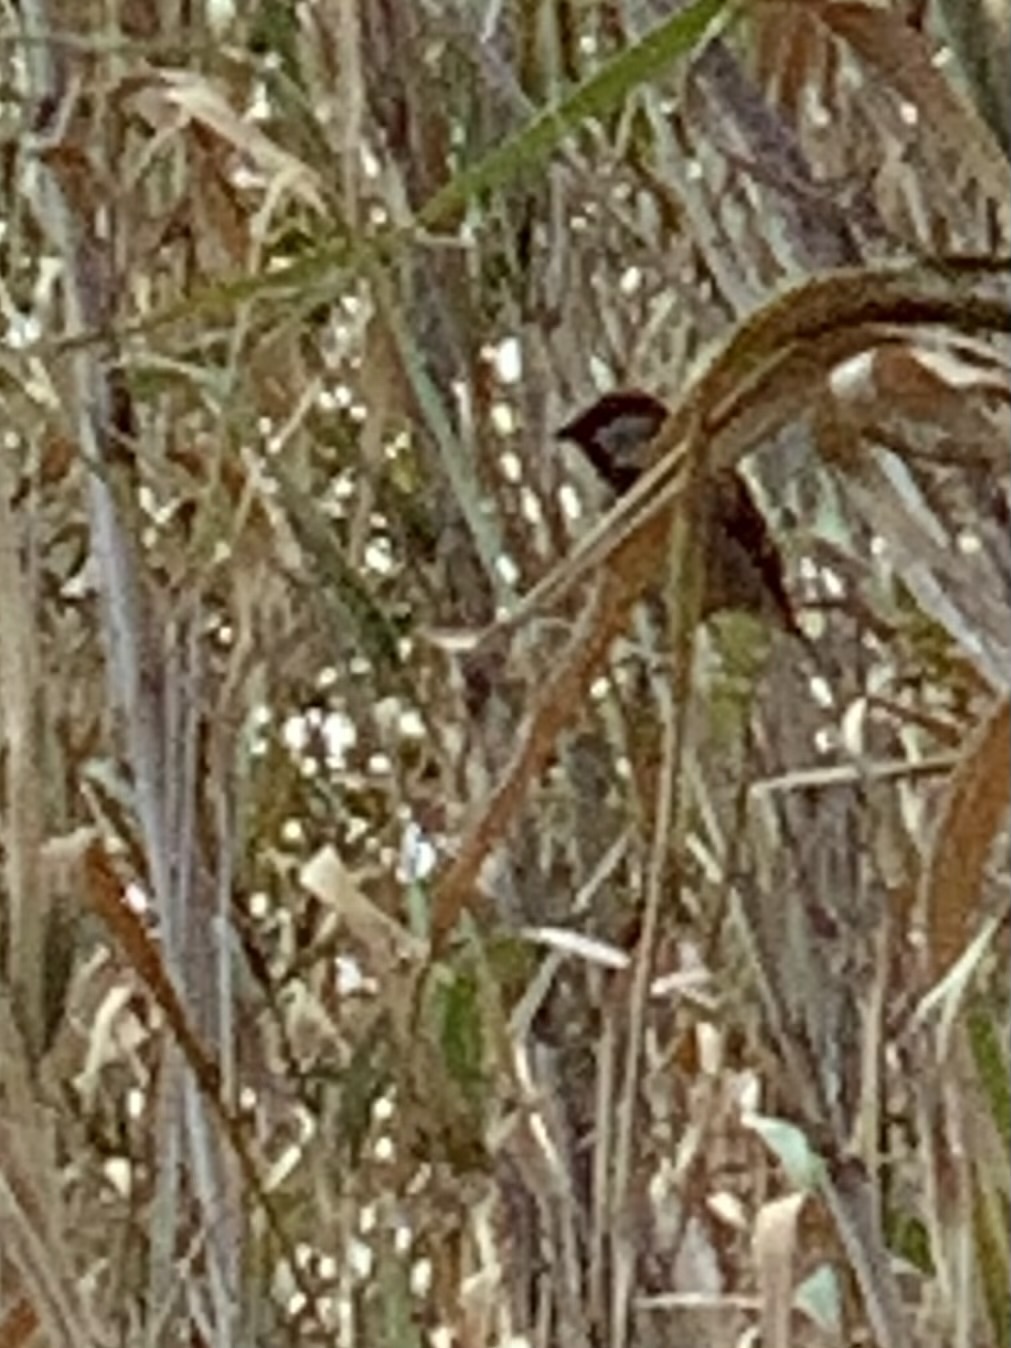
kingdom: Animalia
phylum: Chordata
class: Aves
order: Passeriformes
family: Passeridae
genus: Passer
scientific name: Passer domesticus
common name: House sparrow
